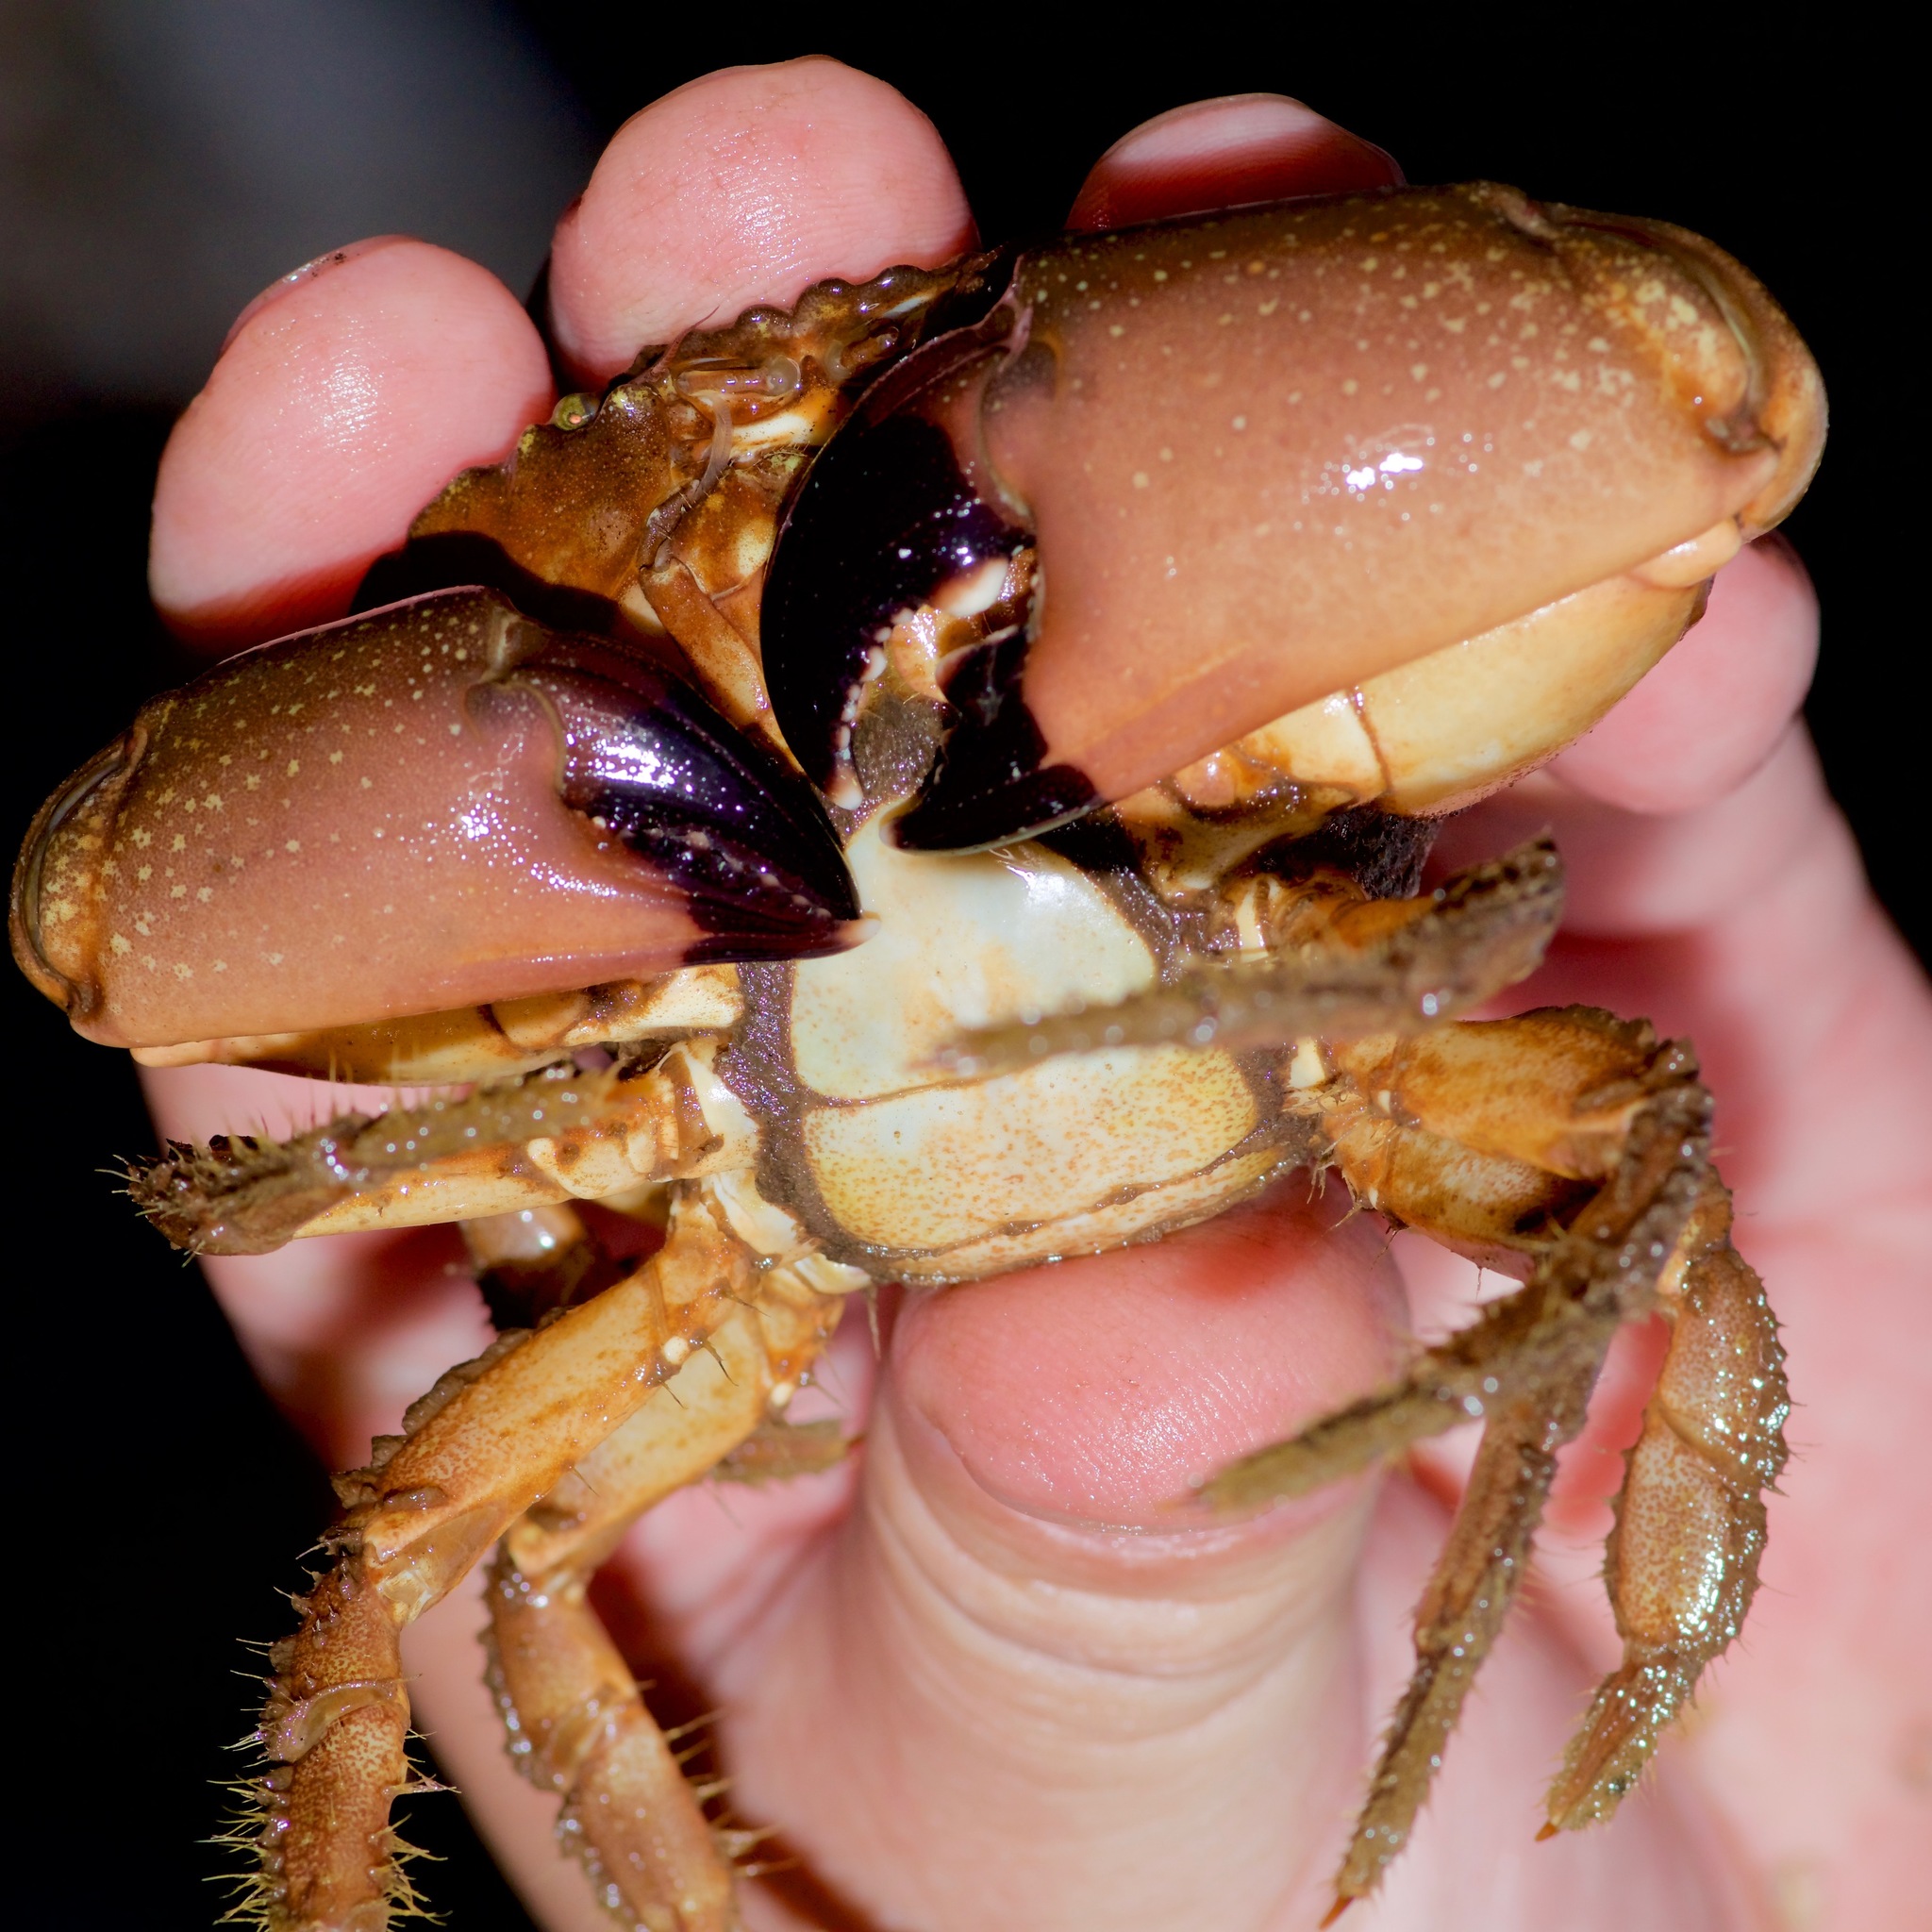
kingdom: Animalia
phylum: Arthropoda
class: Malacostraca
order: Decapoda
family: Menippidae
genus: Menippe
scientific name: Menippe adina
